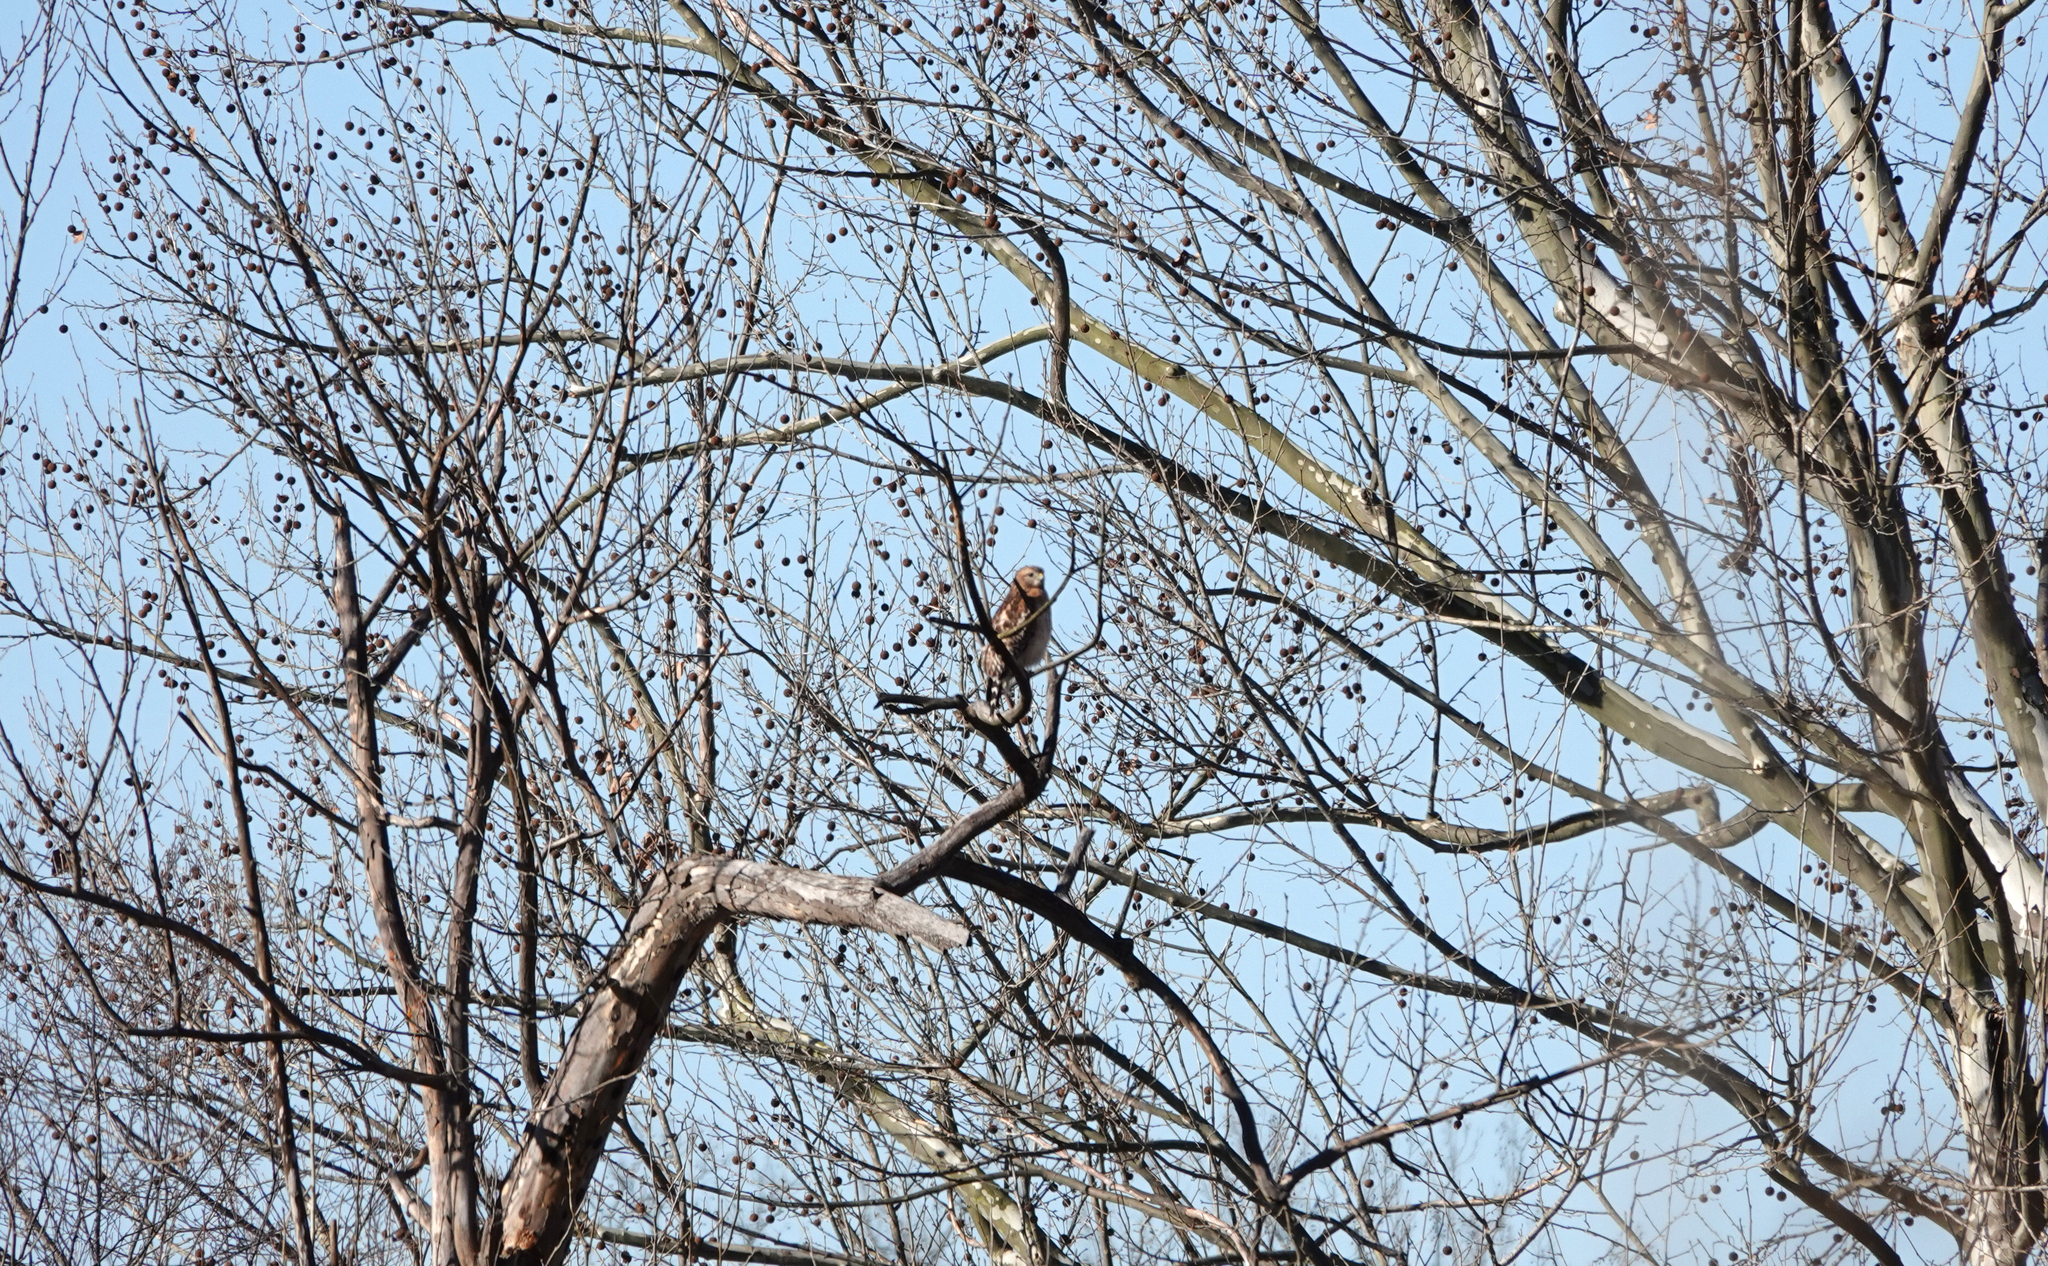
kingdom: Animalia
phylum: Chordata
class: Aves
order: Accipitriformes
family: Accipitridae
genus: Buteo
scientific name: Buteo lineatus
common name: Red-shouldered hawk
